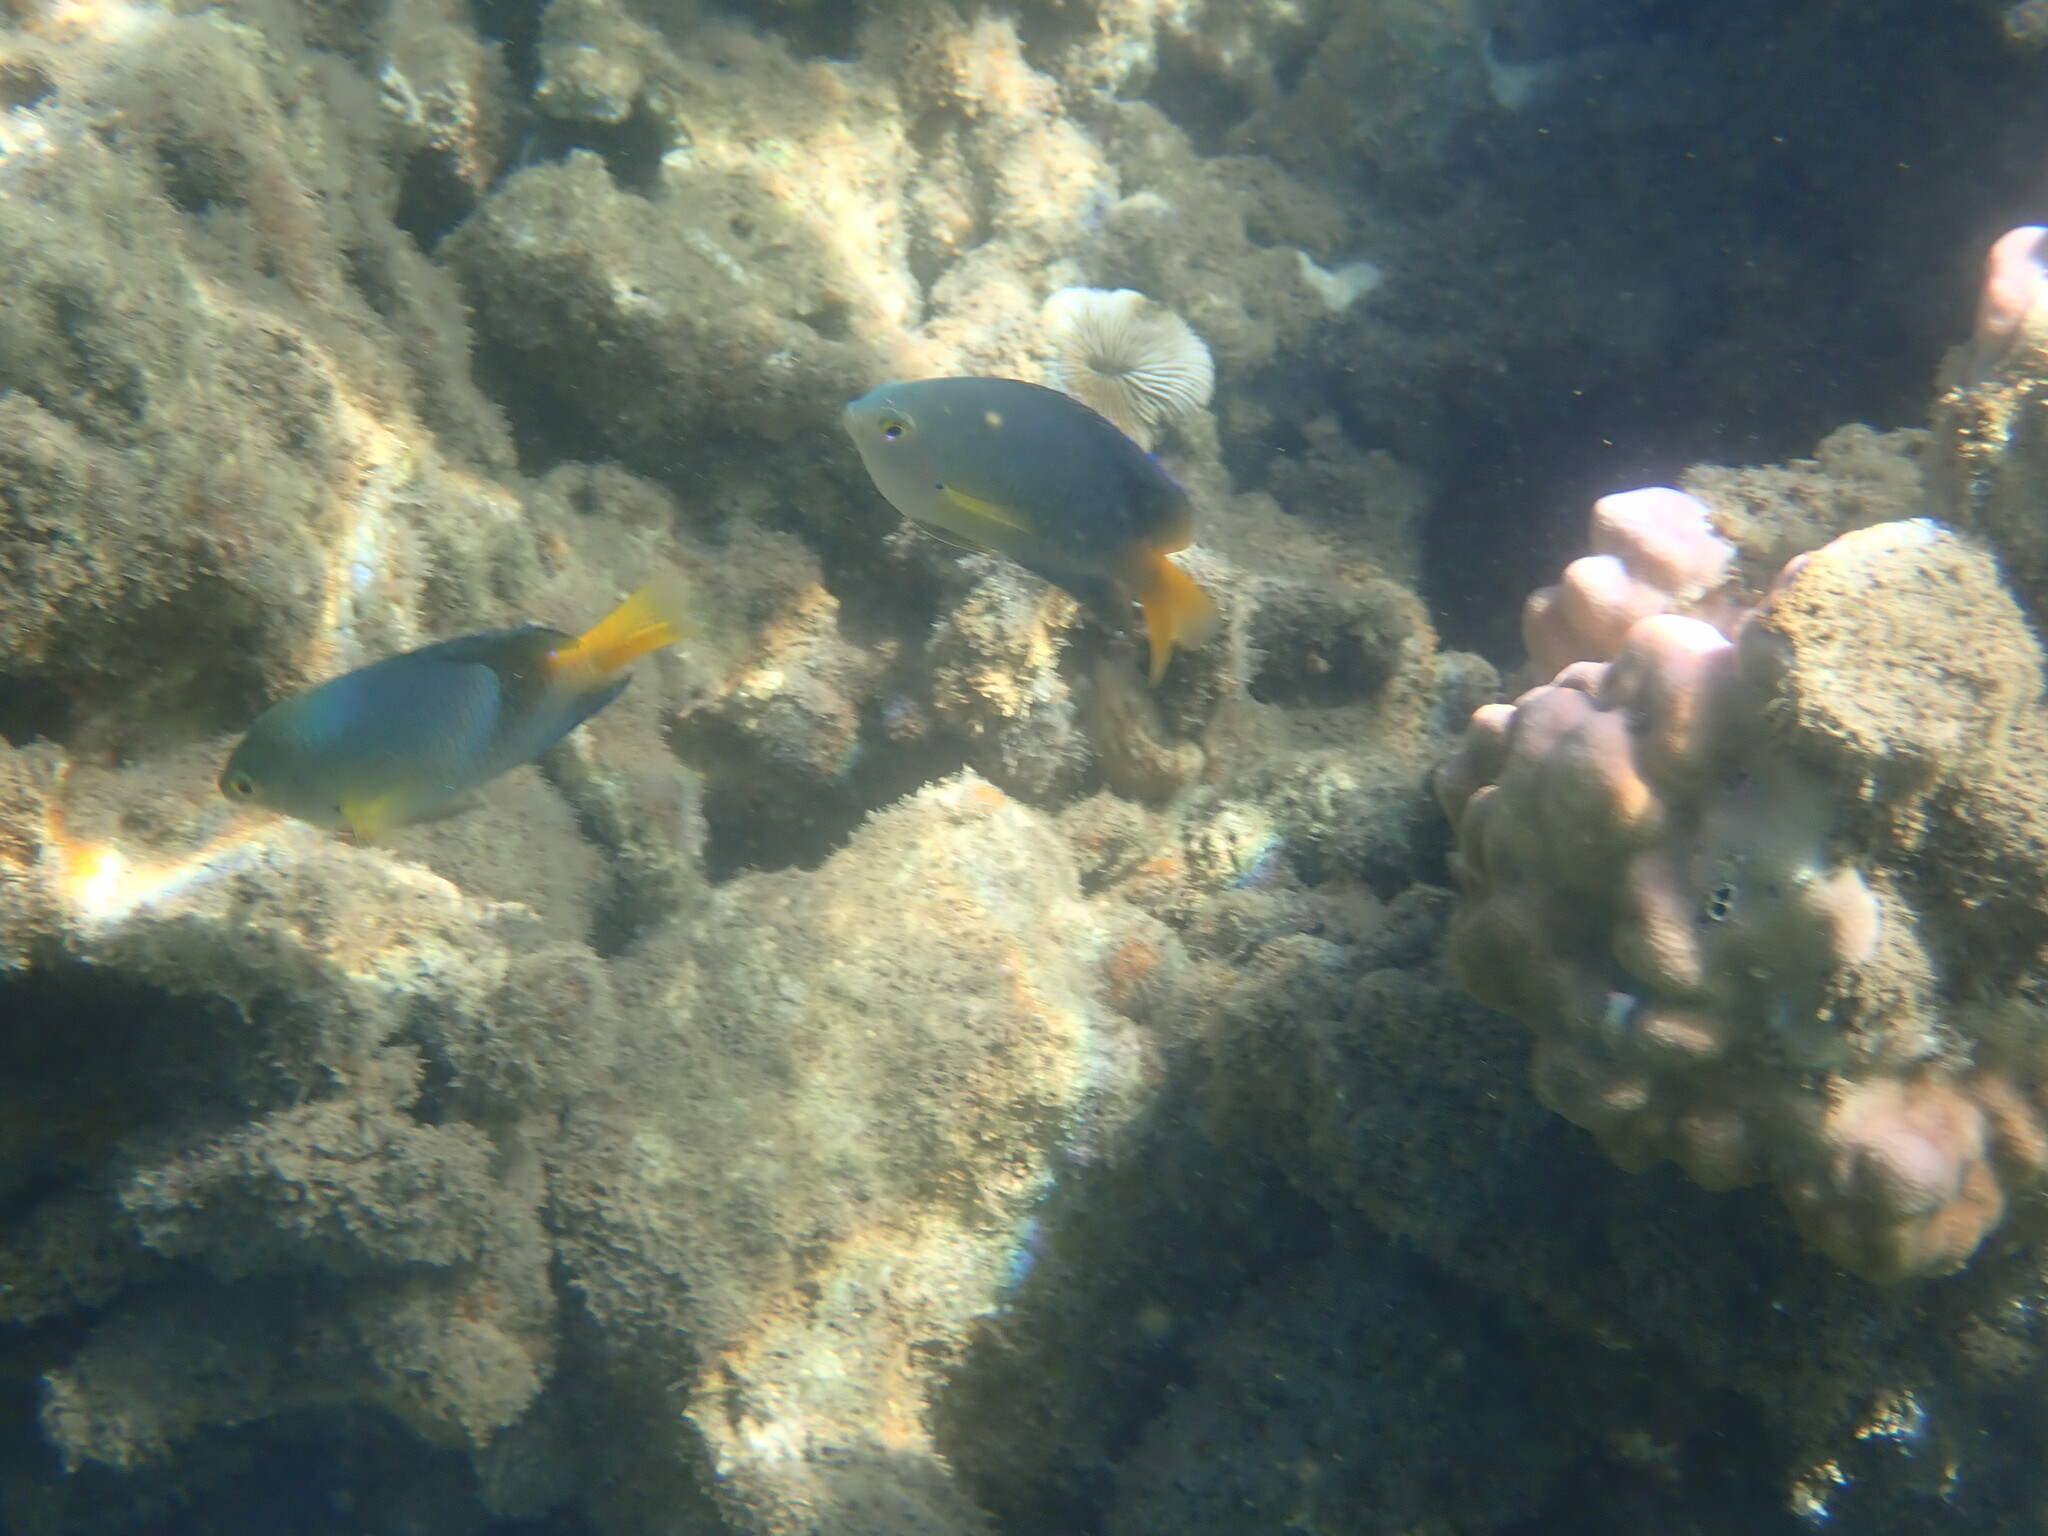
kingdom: Animalia
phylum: Chordata
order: Perciformes
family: Pomacentridae
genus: Pomacentrus
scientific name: Pomacentrus maafu
